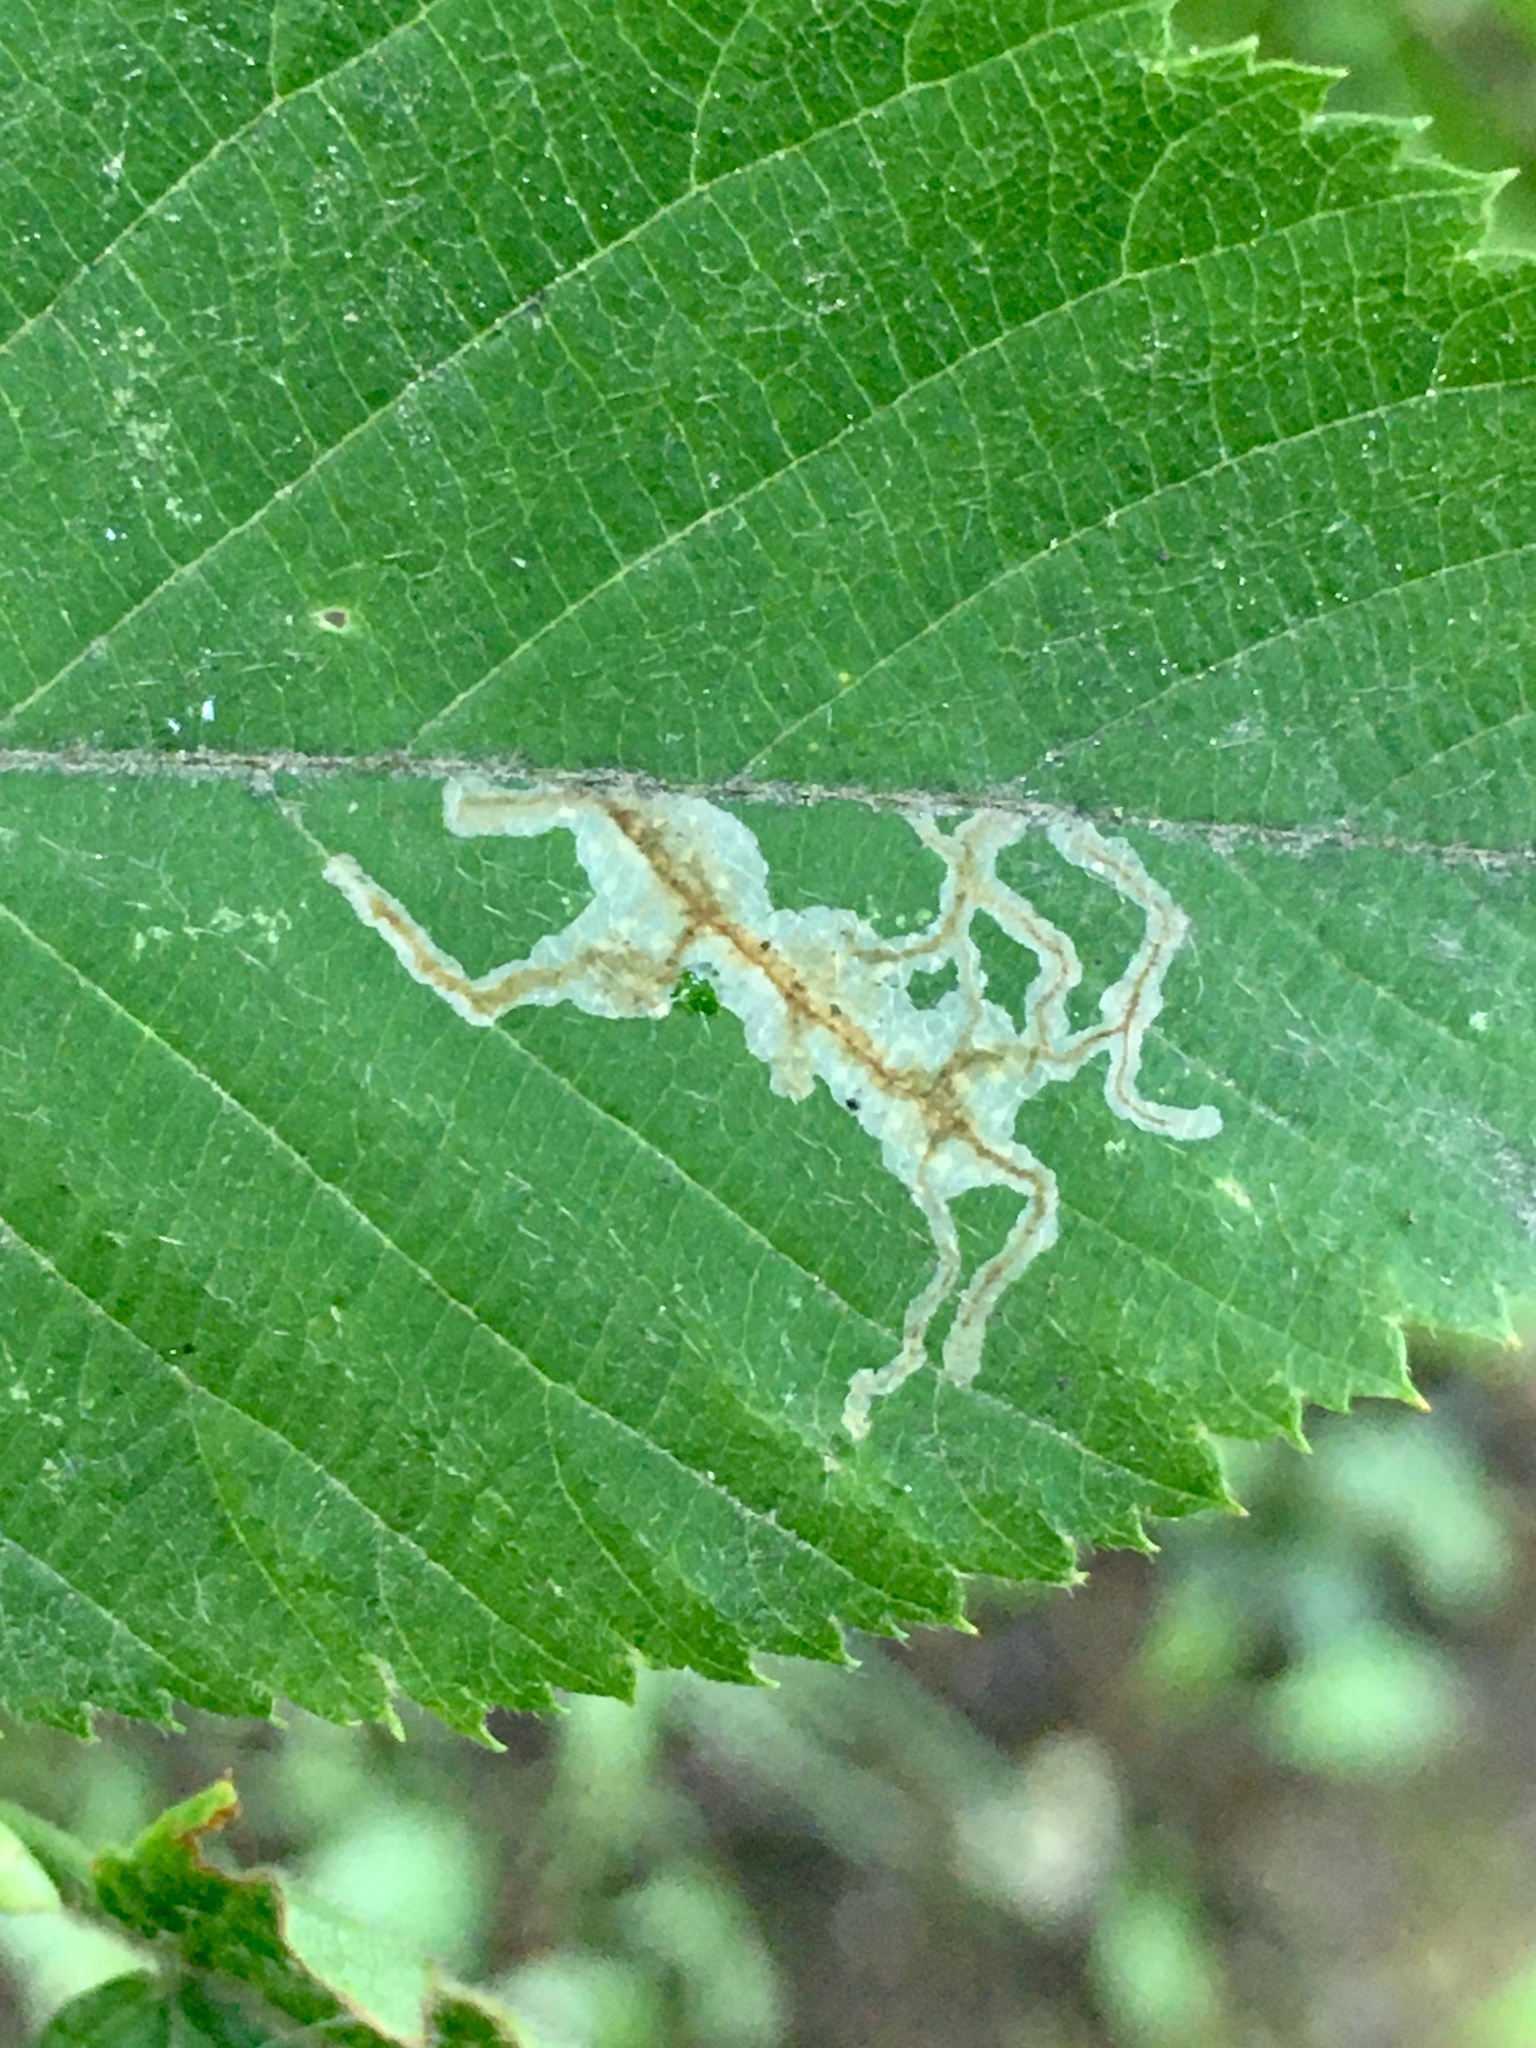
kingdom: Animalia
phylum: Arthropoda
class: Insecta
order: Lepidoptera
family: Gracillariidae
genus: Caloptilia
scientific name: Caloptilia ostryaeella
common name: Ironwood leafcone moth
